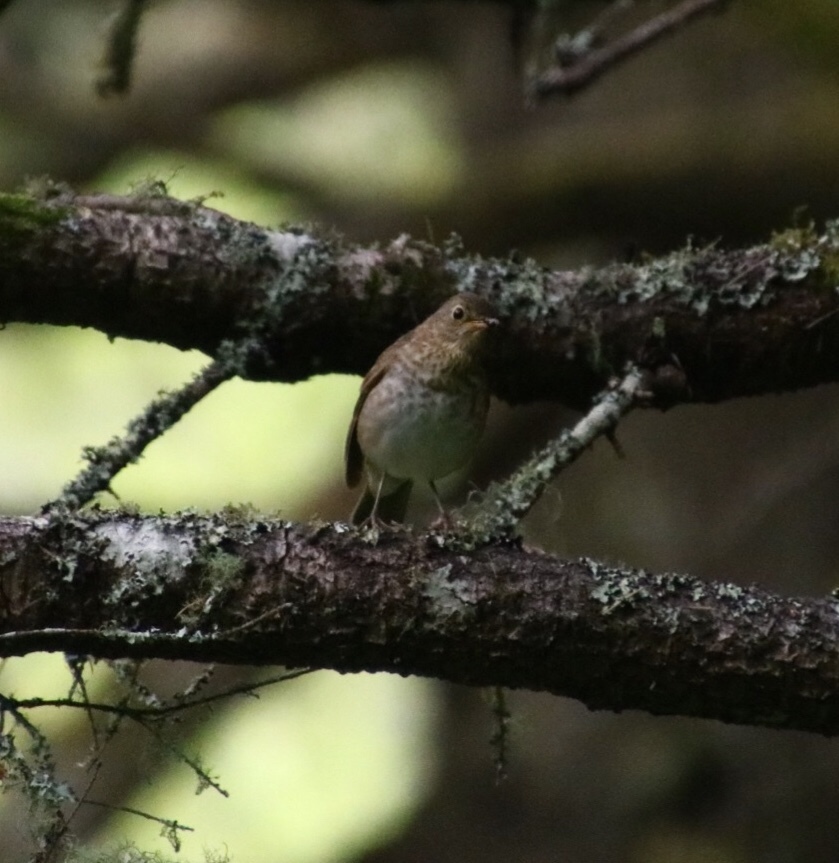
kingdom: Animalia
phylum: Chordata
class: Aves
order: Passeriformes
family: Turdidae
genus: Catharus
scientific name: Catharus ustulatus
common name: Swainson's thrush
